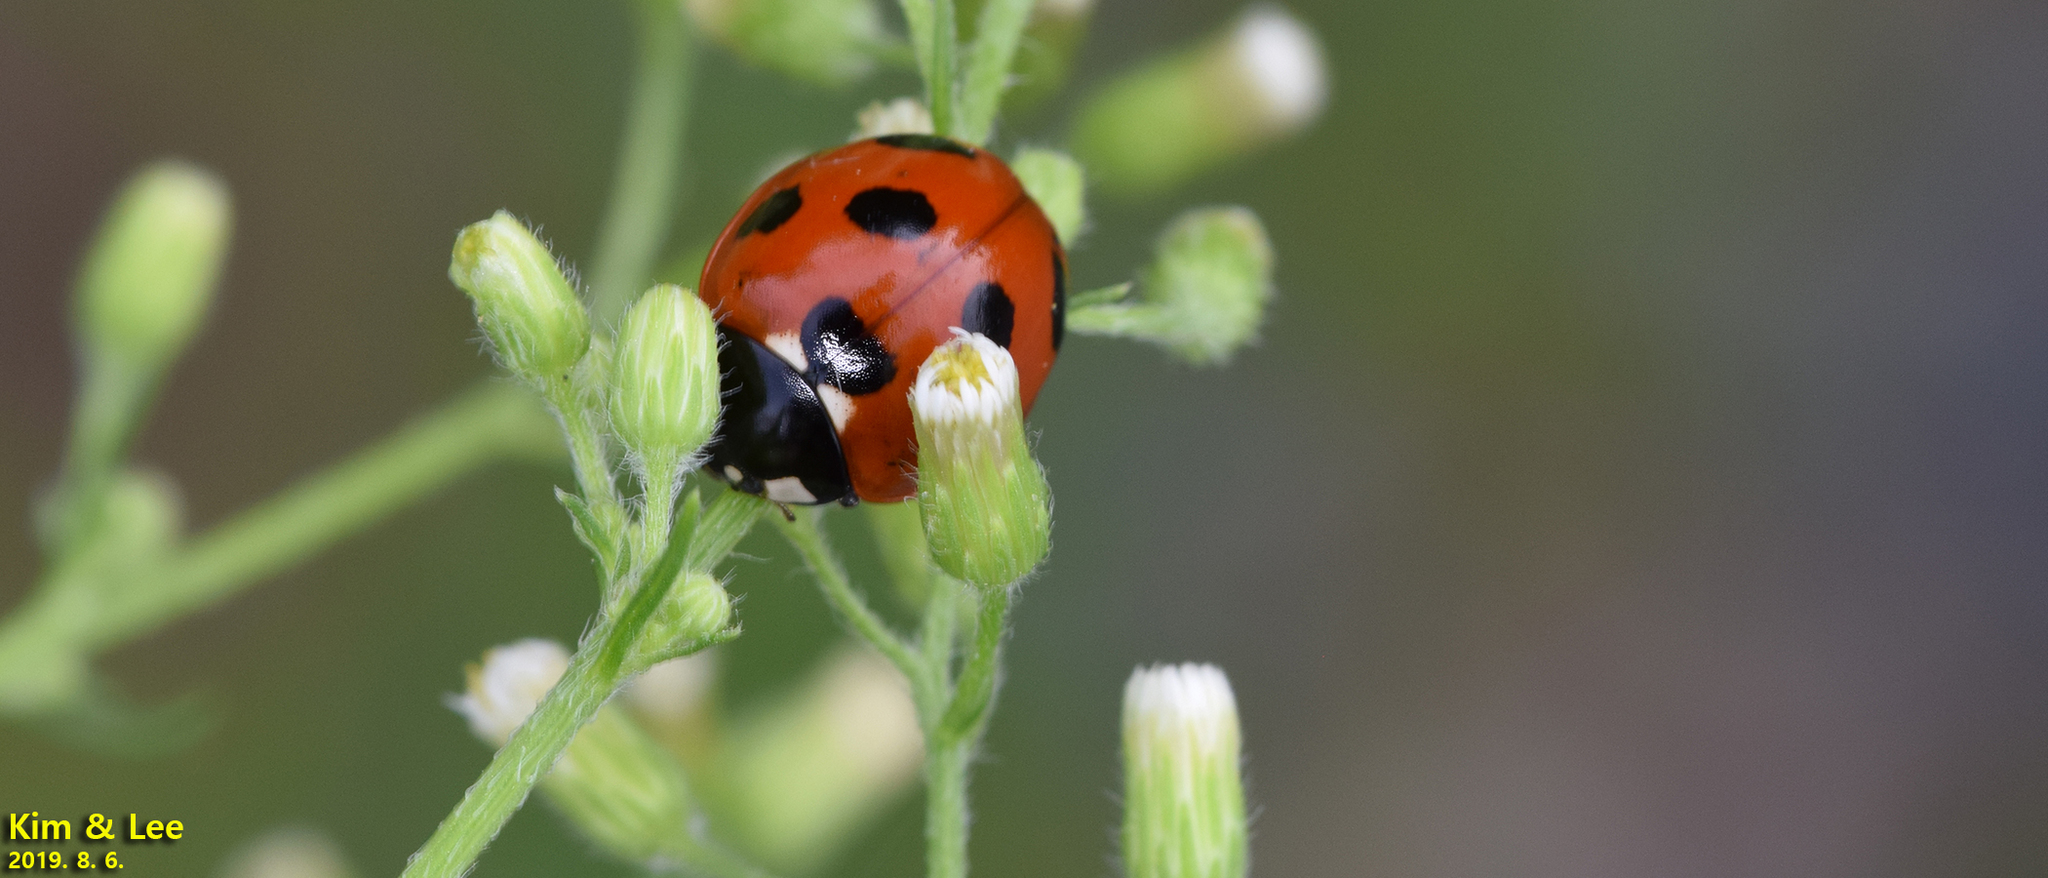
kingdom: Animalia
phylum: Arthropoda
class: Insecta
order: Coleoptera
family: Coccinellidae
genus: Coccinella
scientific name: Coccinella septempunctata
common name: Sevenspotted lady beetle
